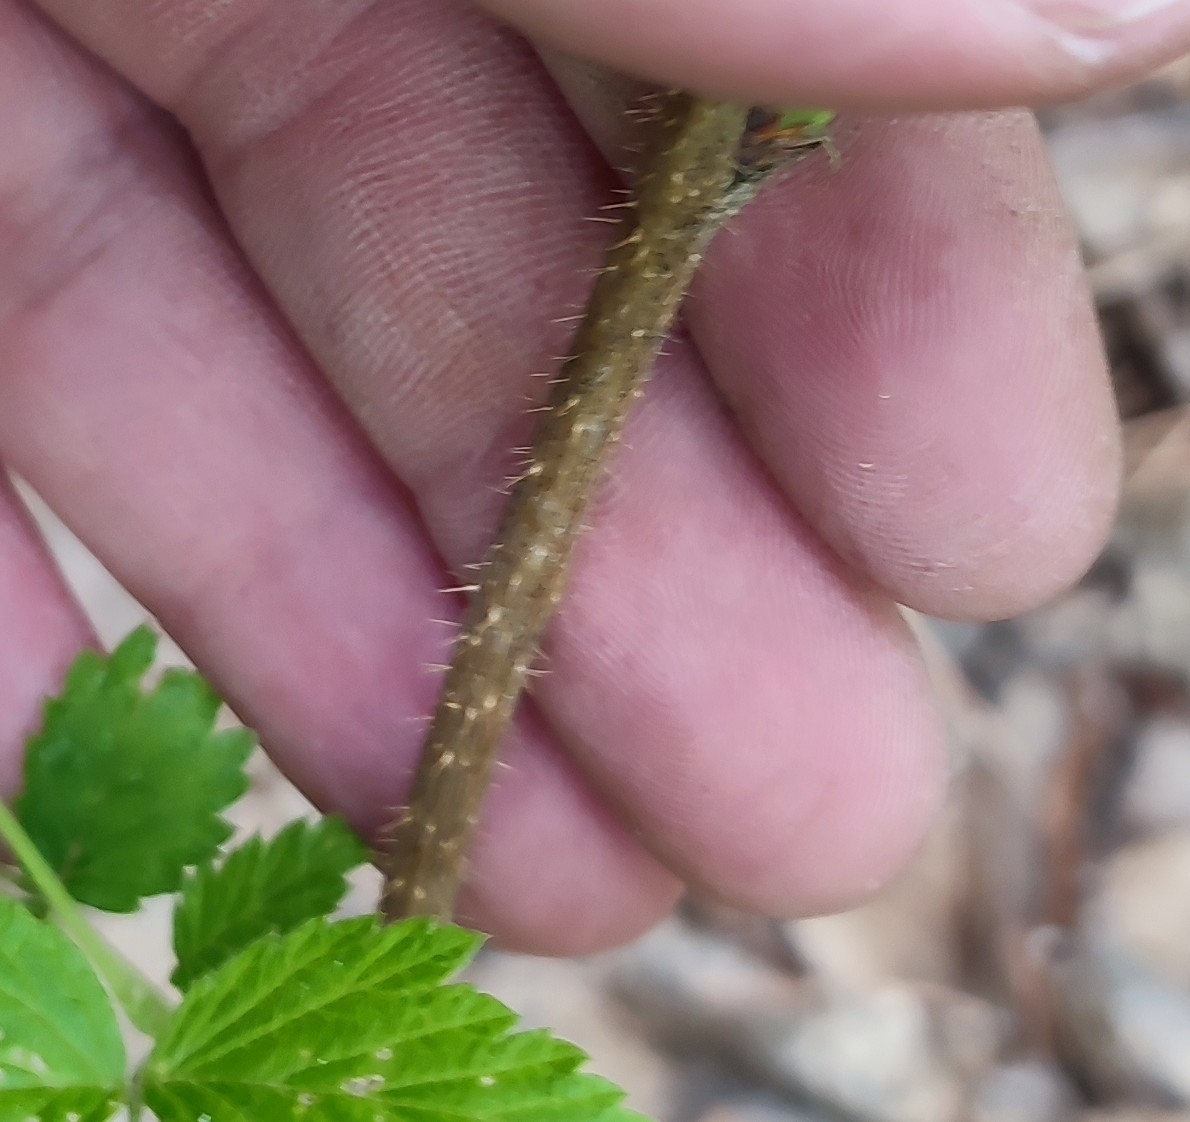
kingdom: Plantae
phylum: Tracheophyta
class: Magnoliopsida
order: Rosales
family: Rosaceae
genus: Rubus
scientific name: Rubus idaeus
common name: Raspberry
